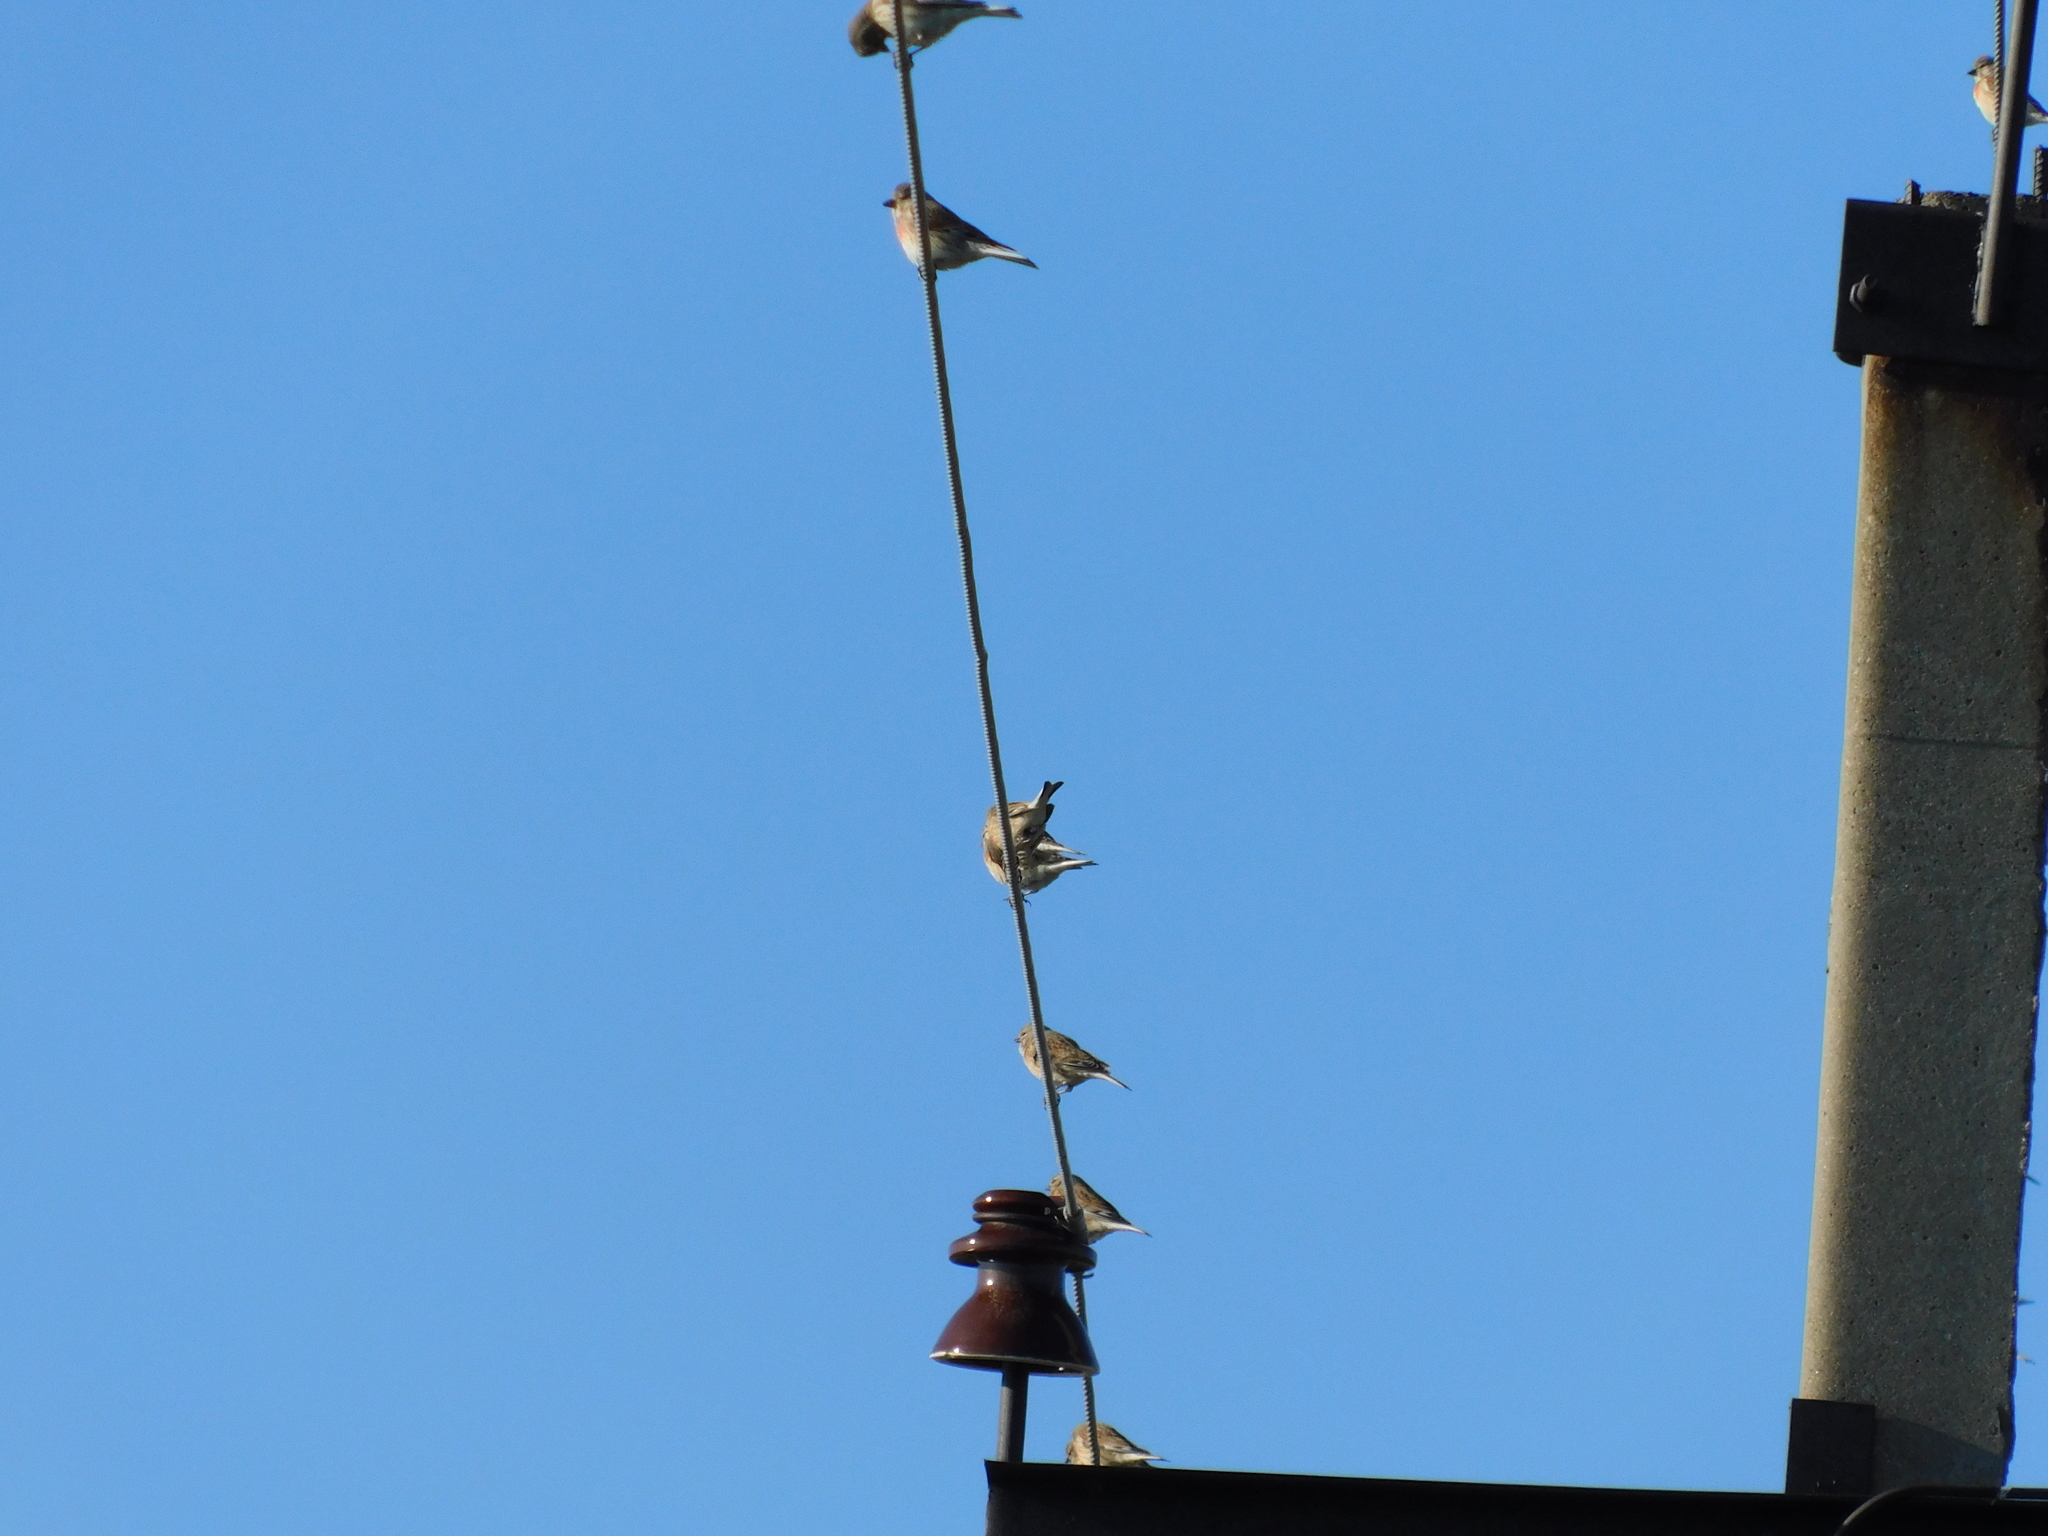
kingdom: Animalia
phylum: Chordata
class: Aves
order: Passeriformes
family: Fringillidae
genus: Linaria
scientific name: Linaria cannabina
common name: Common linnet
